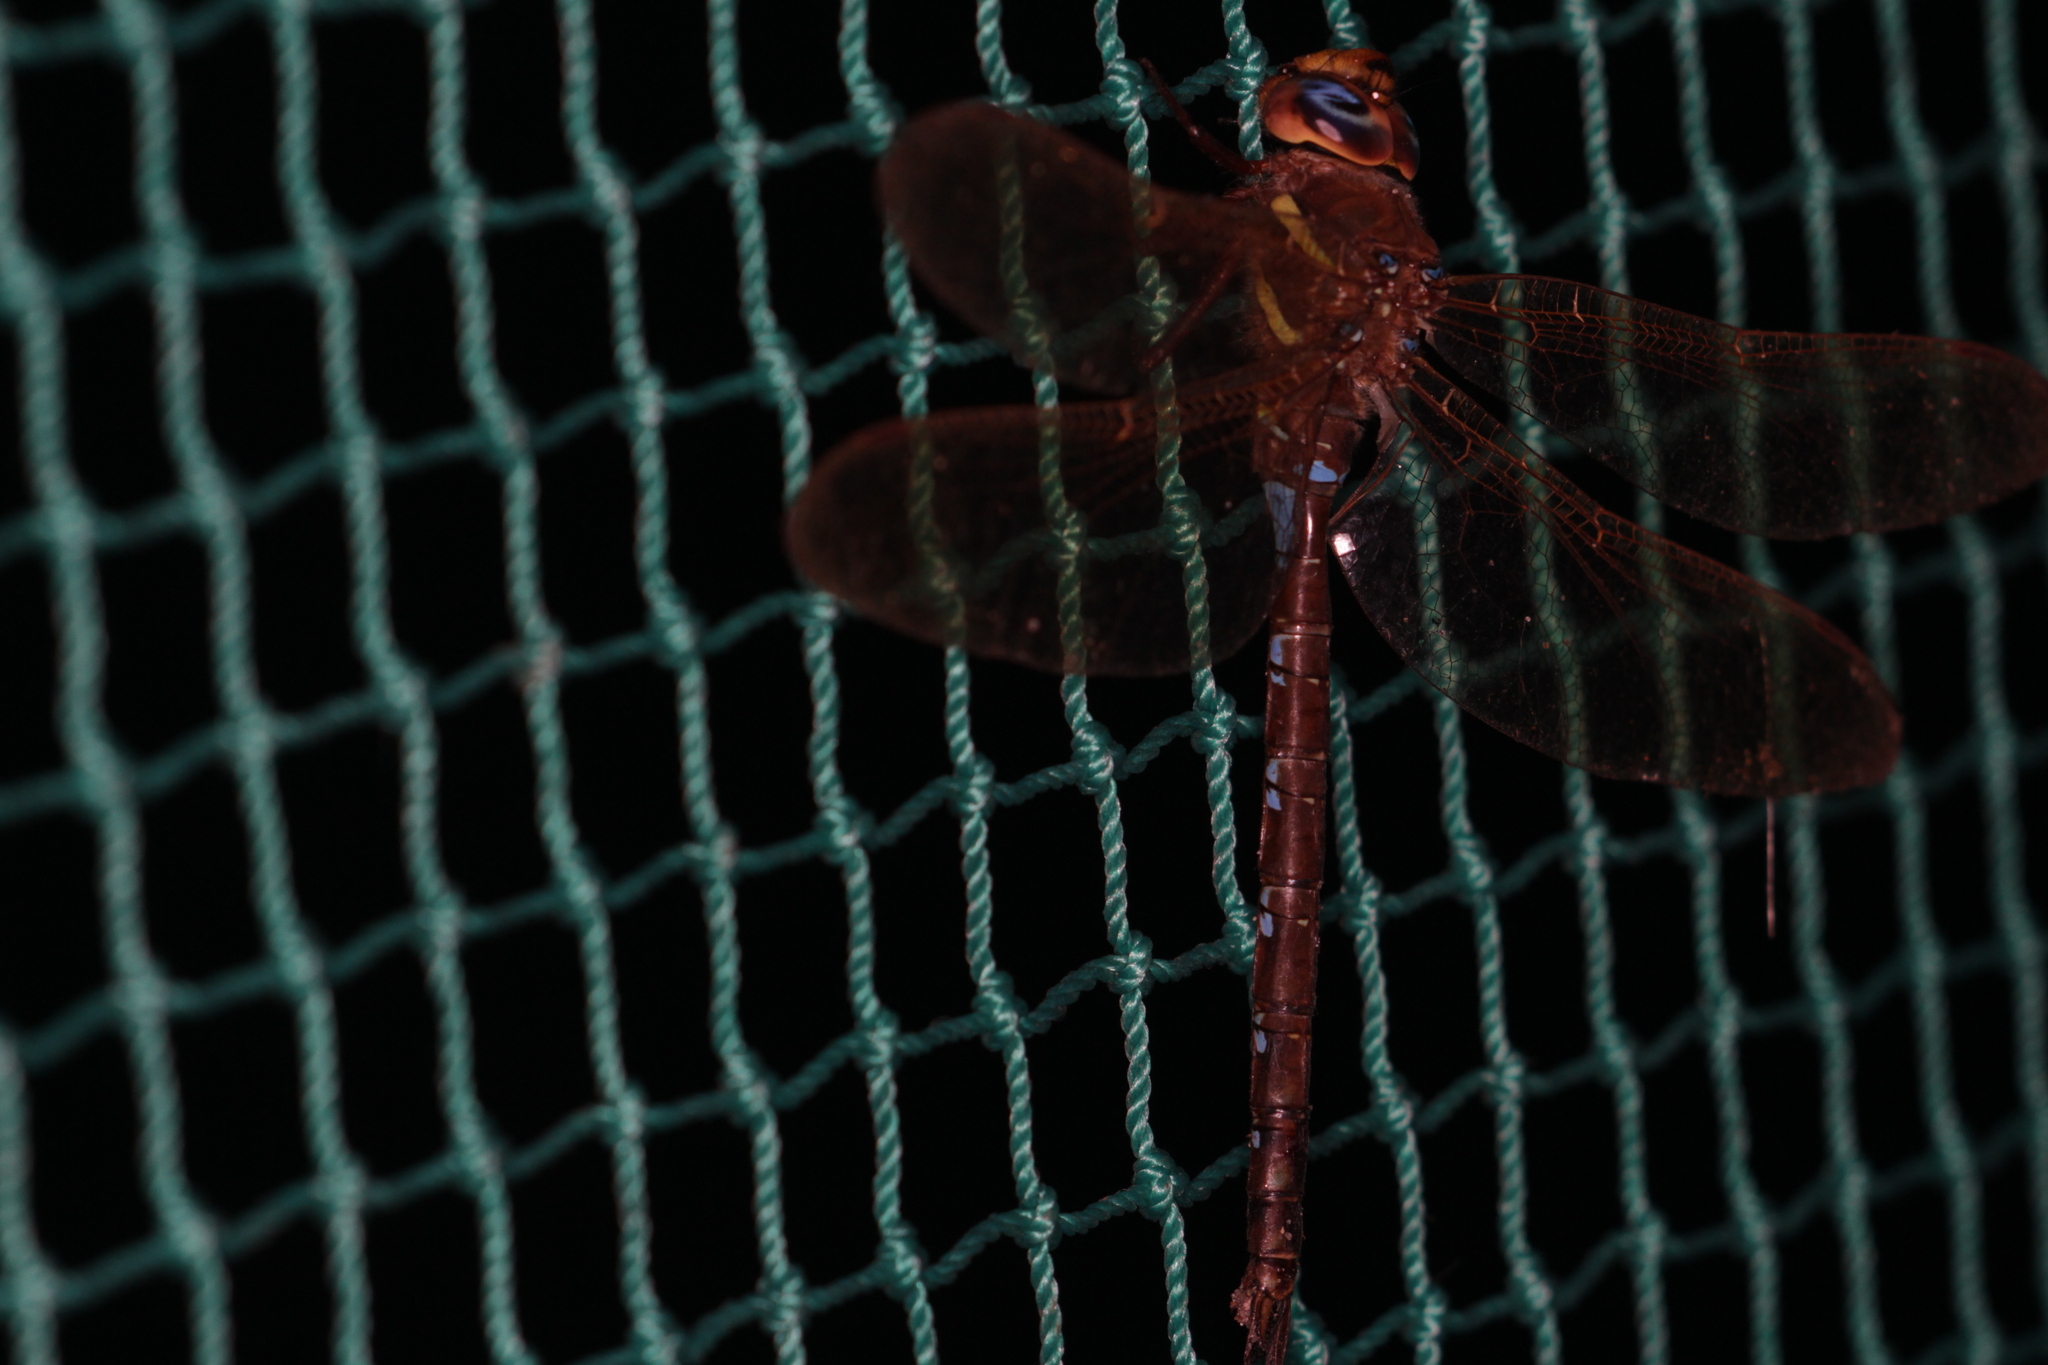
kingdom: Animalia
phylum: Arthropoda
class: Insecta
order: Odonata
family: Aeshnidae
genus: Aeshna
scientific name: Aeshna grandis
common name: Brown hawker
